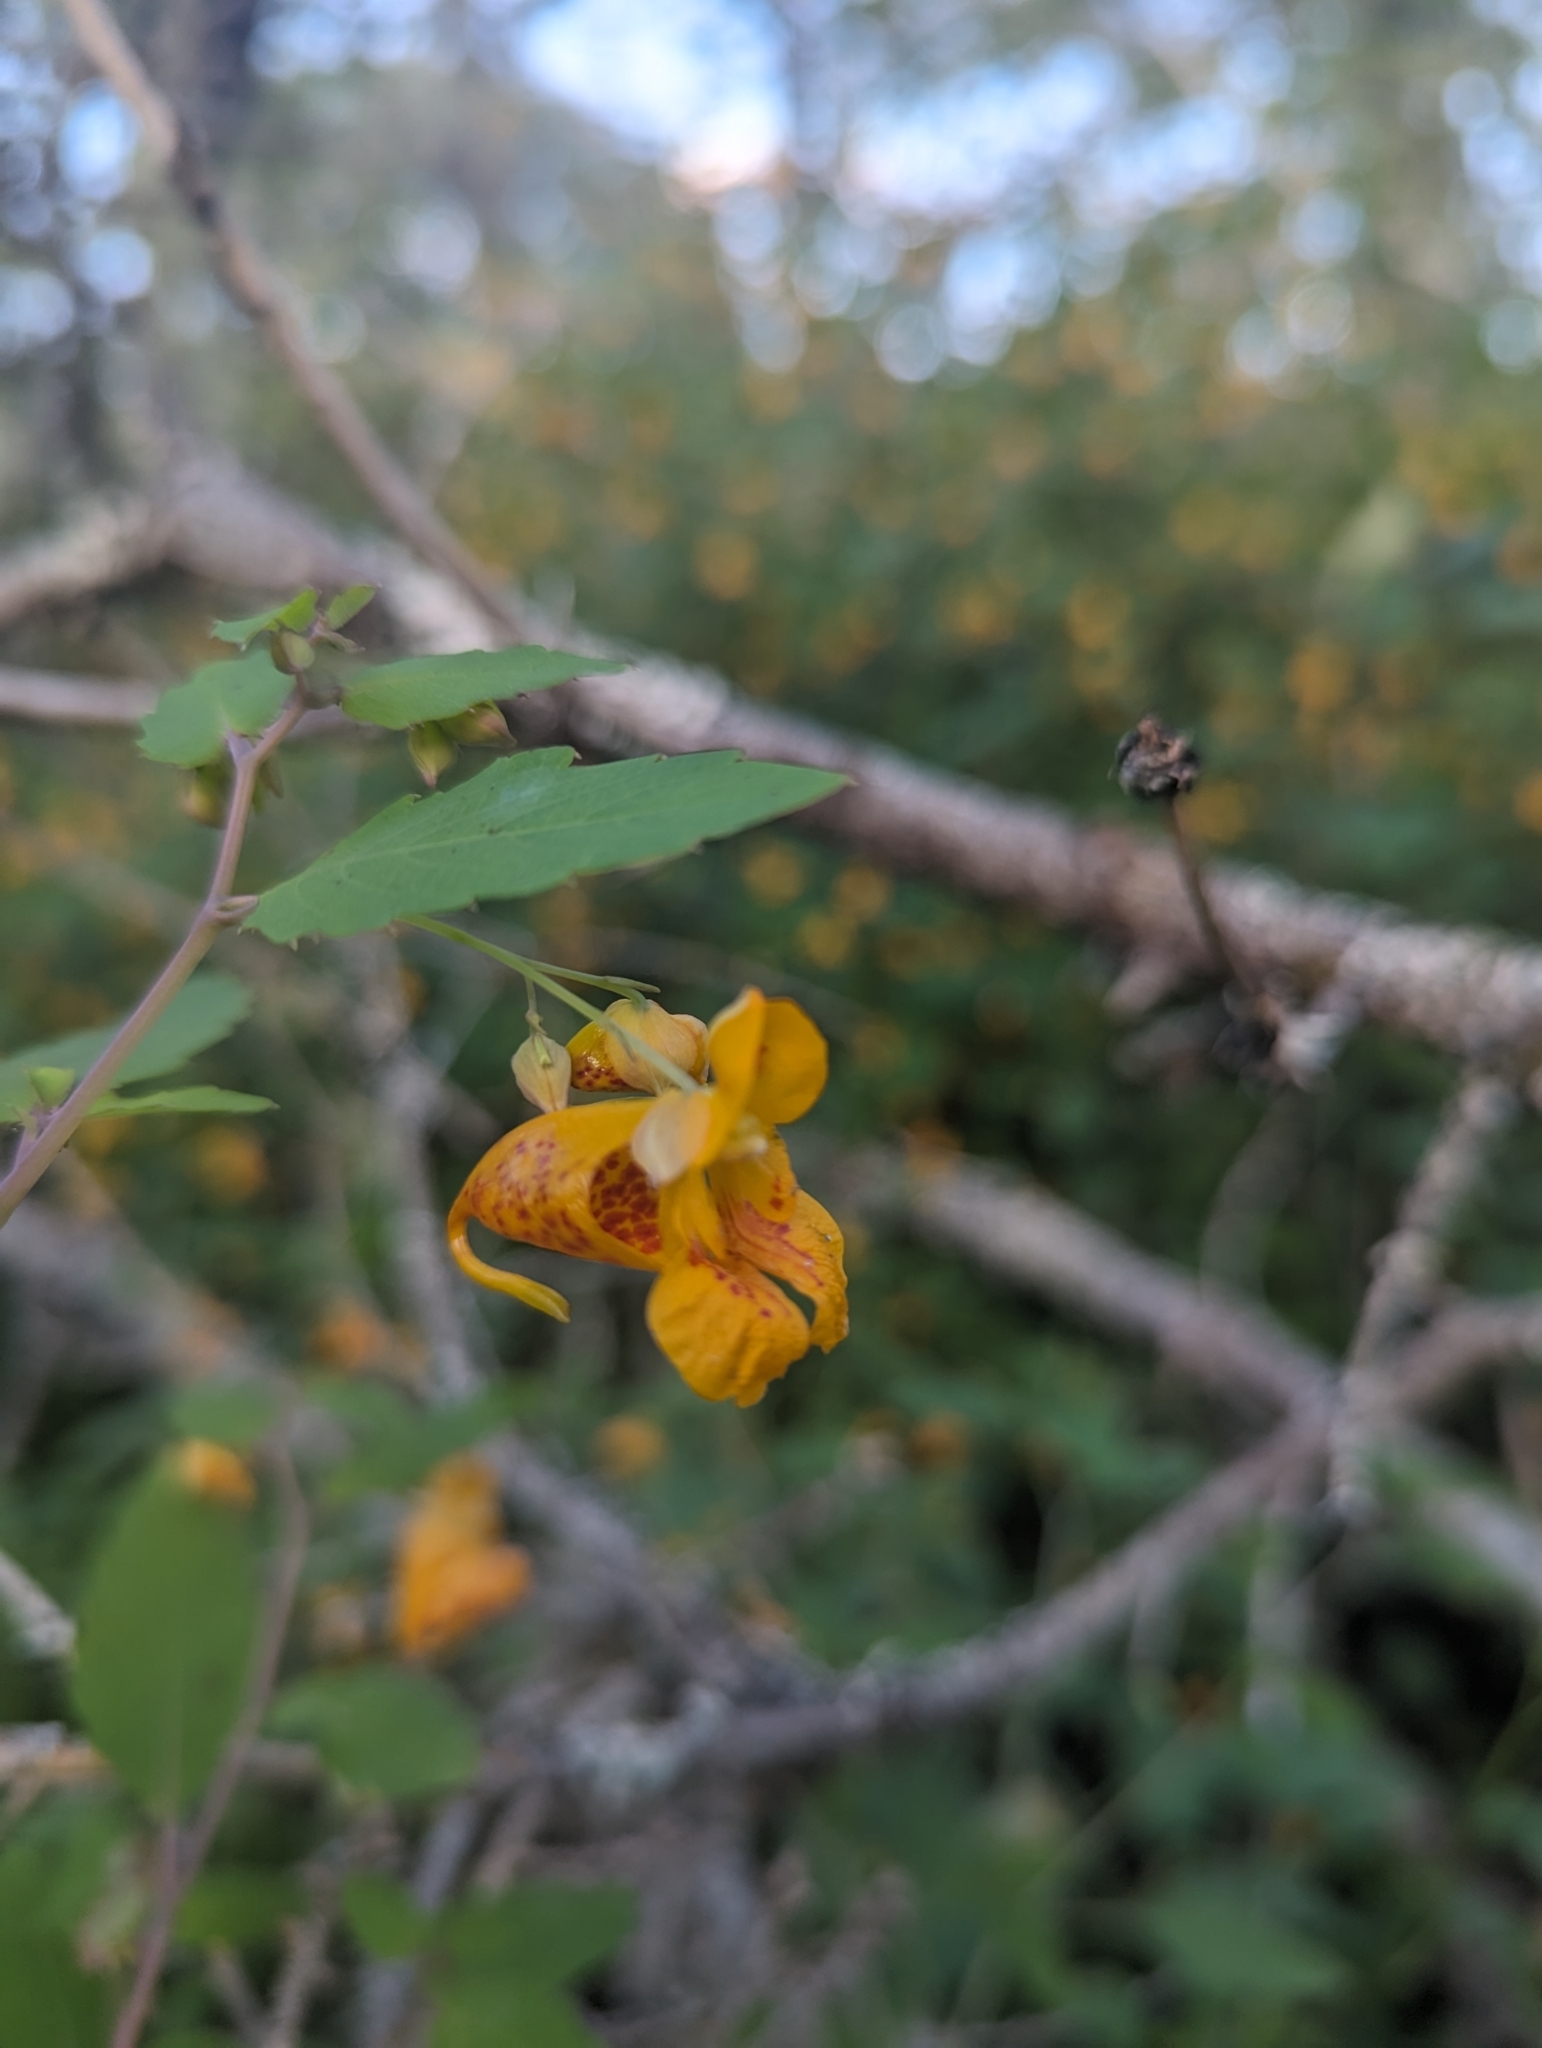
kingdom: Plantae
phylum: Tracheophyta
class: Magnoliopsida
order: Ericales
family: Balsaminaceae
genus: Impatiens
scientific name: Impatiens capensis
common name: Orange balsam
